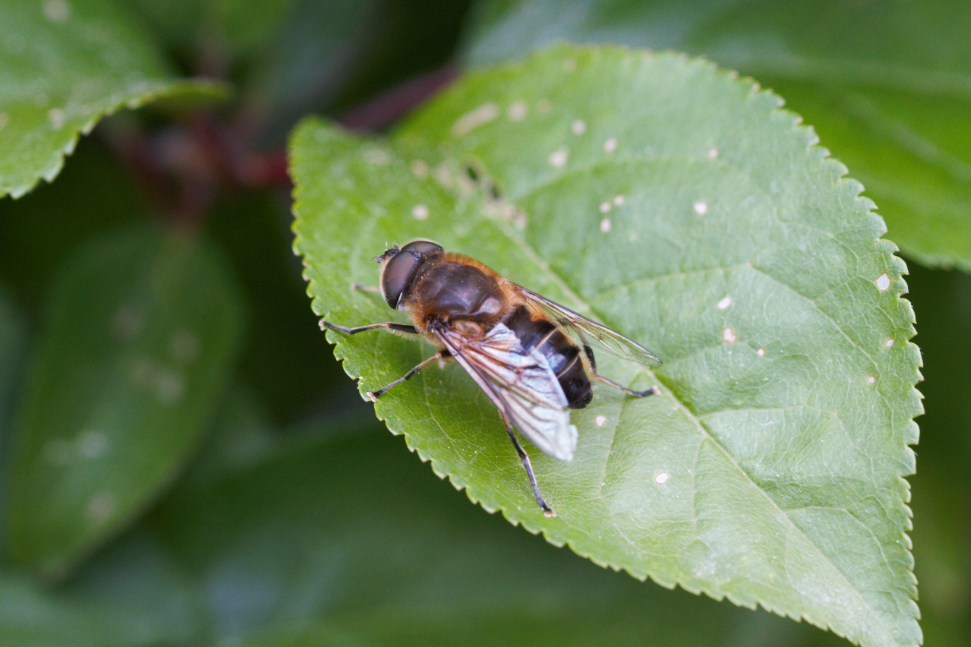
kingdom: Animalia
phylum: Arthropoda
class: Insecta
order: Diptera
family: Syrphidae
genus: Eristalis
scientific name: Eristalis pertinax
